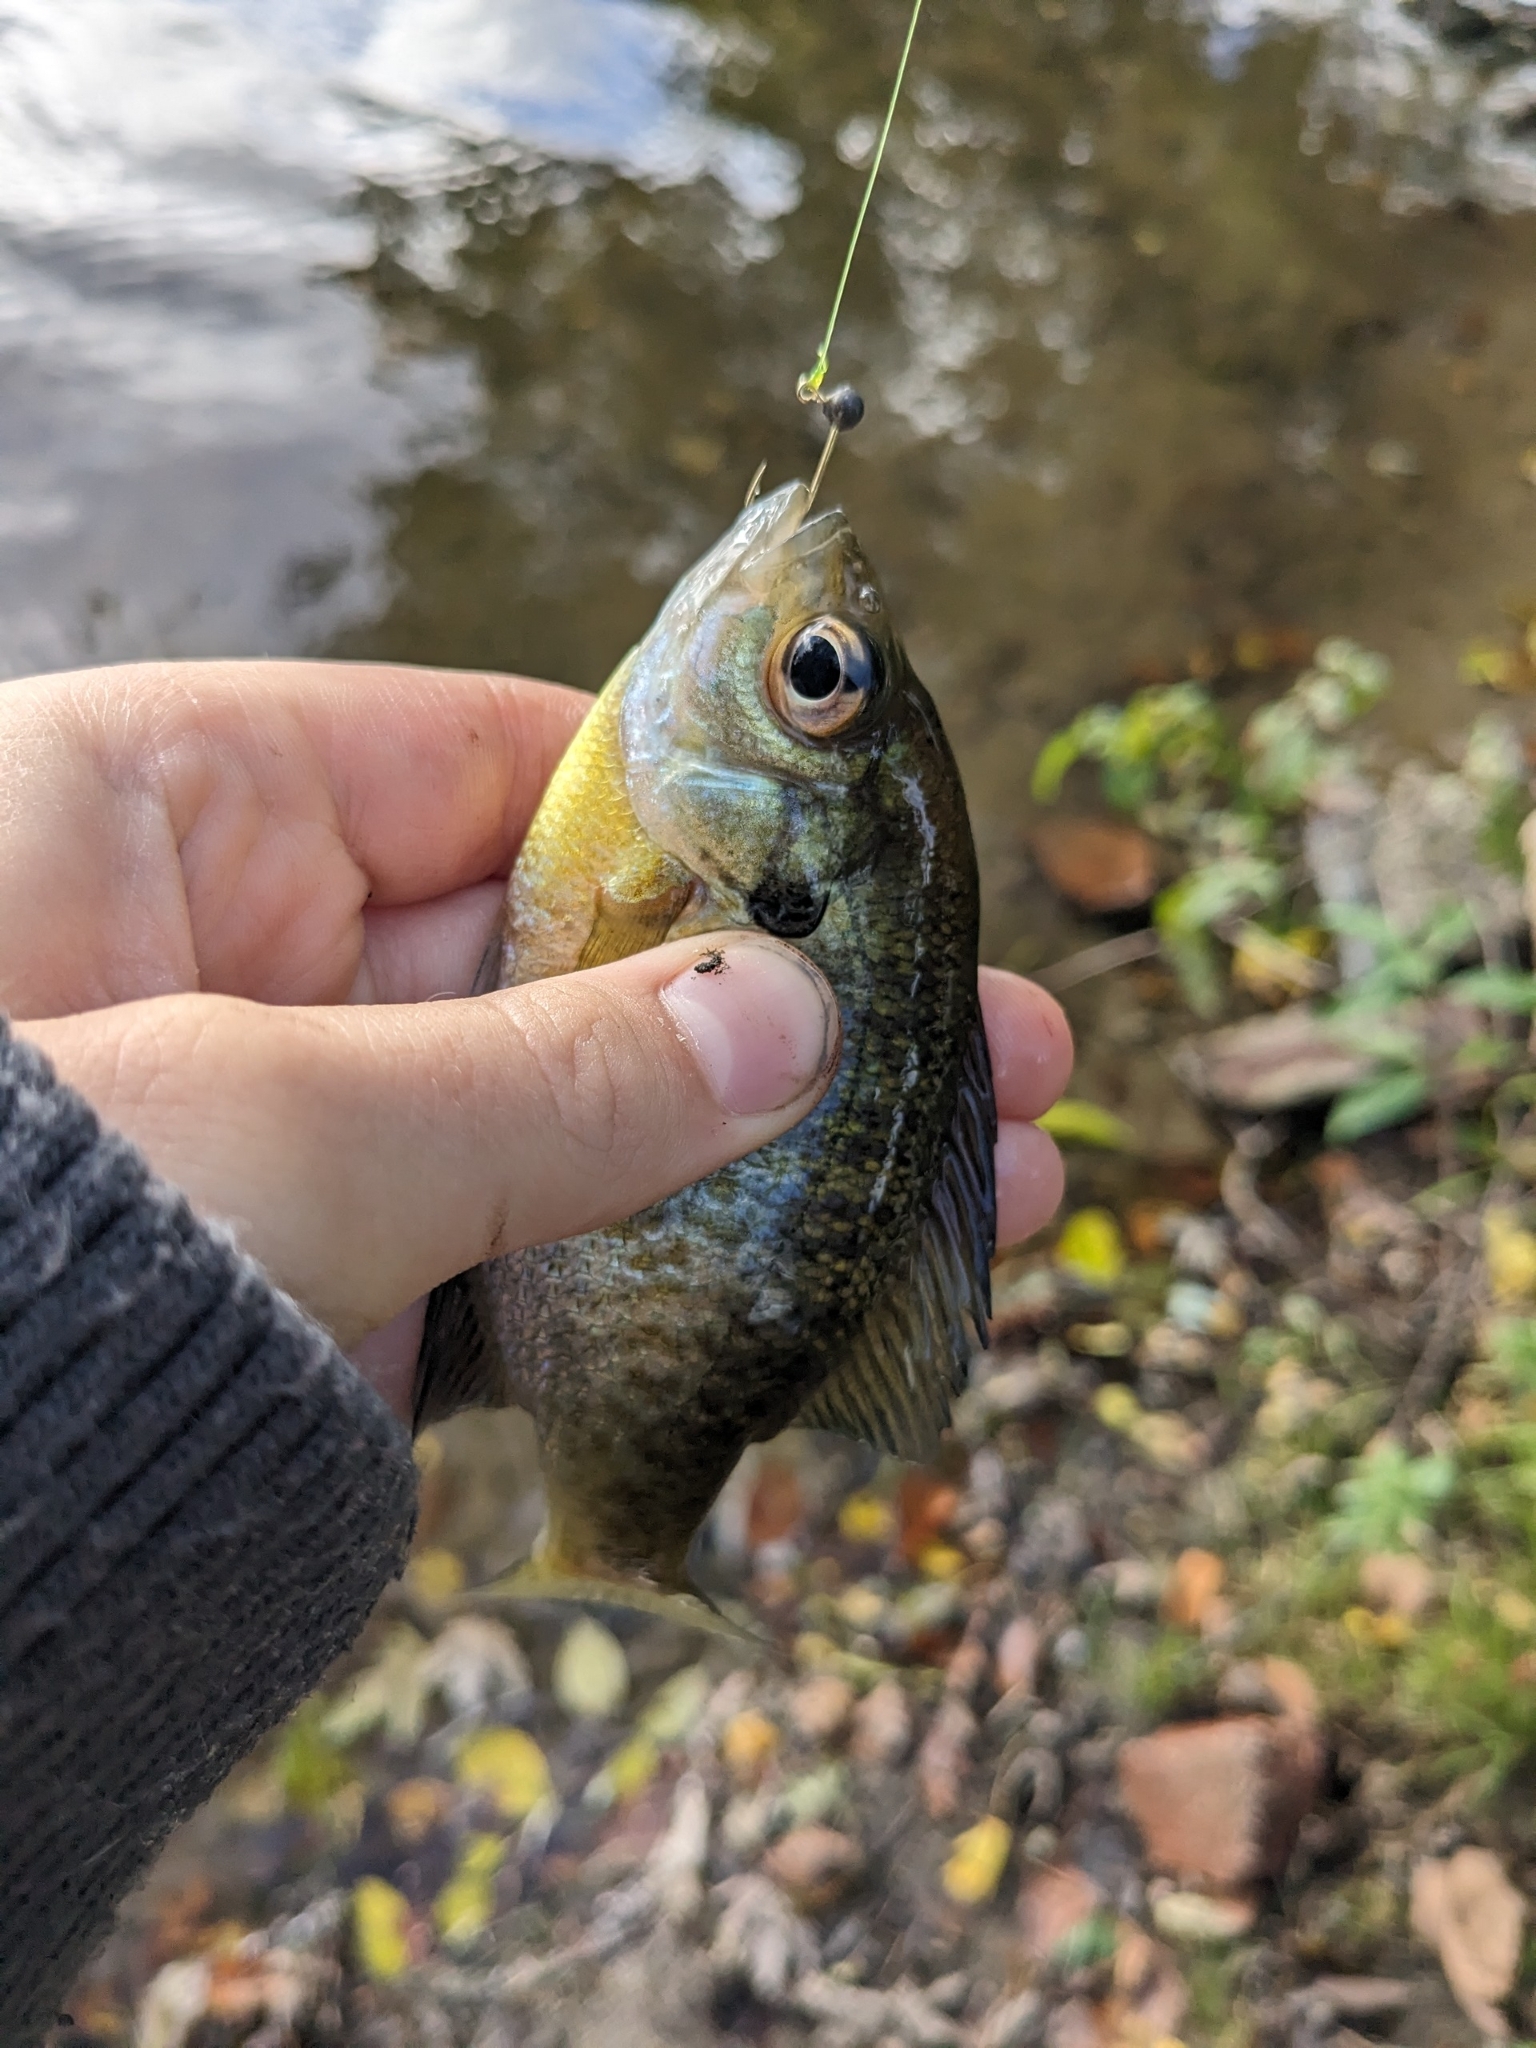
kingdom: Animalia
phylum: Chordata
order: Perciformes
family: Centrarchidae
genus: Lepomis
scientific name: Lepomis macrochirus
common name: Bluegill
